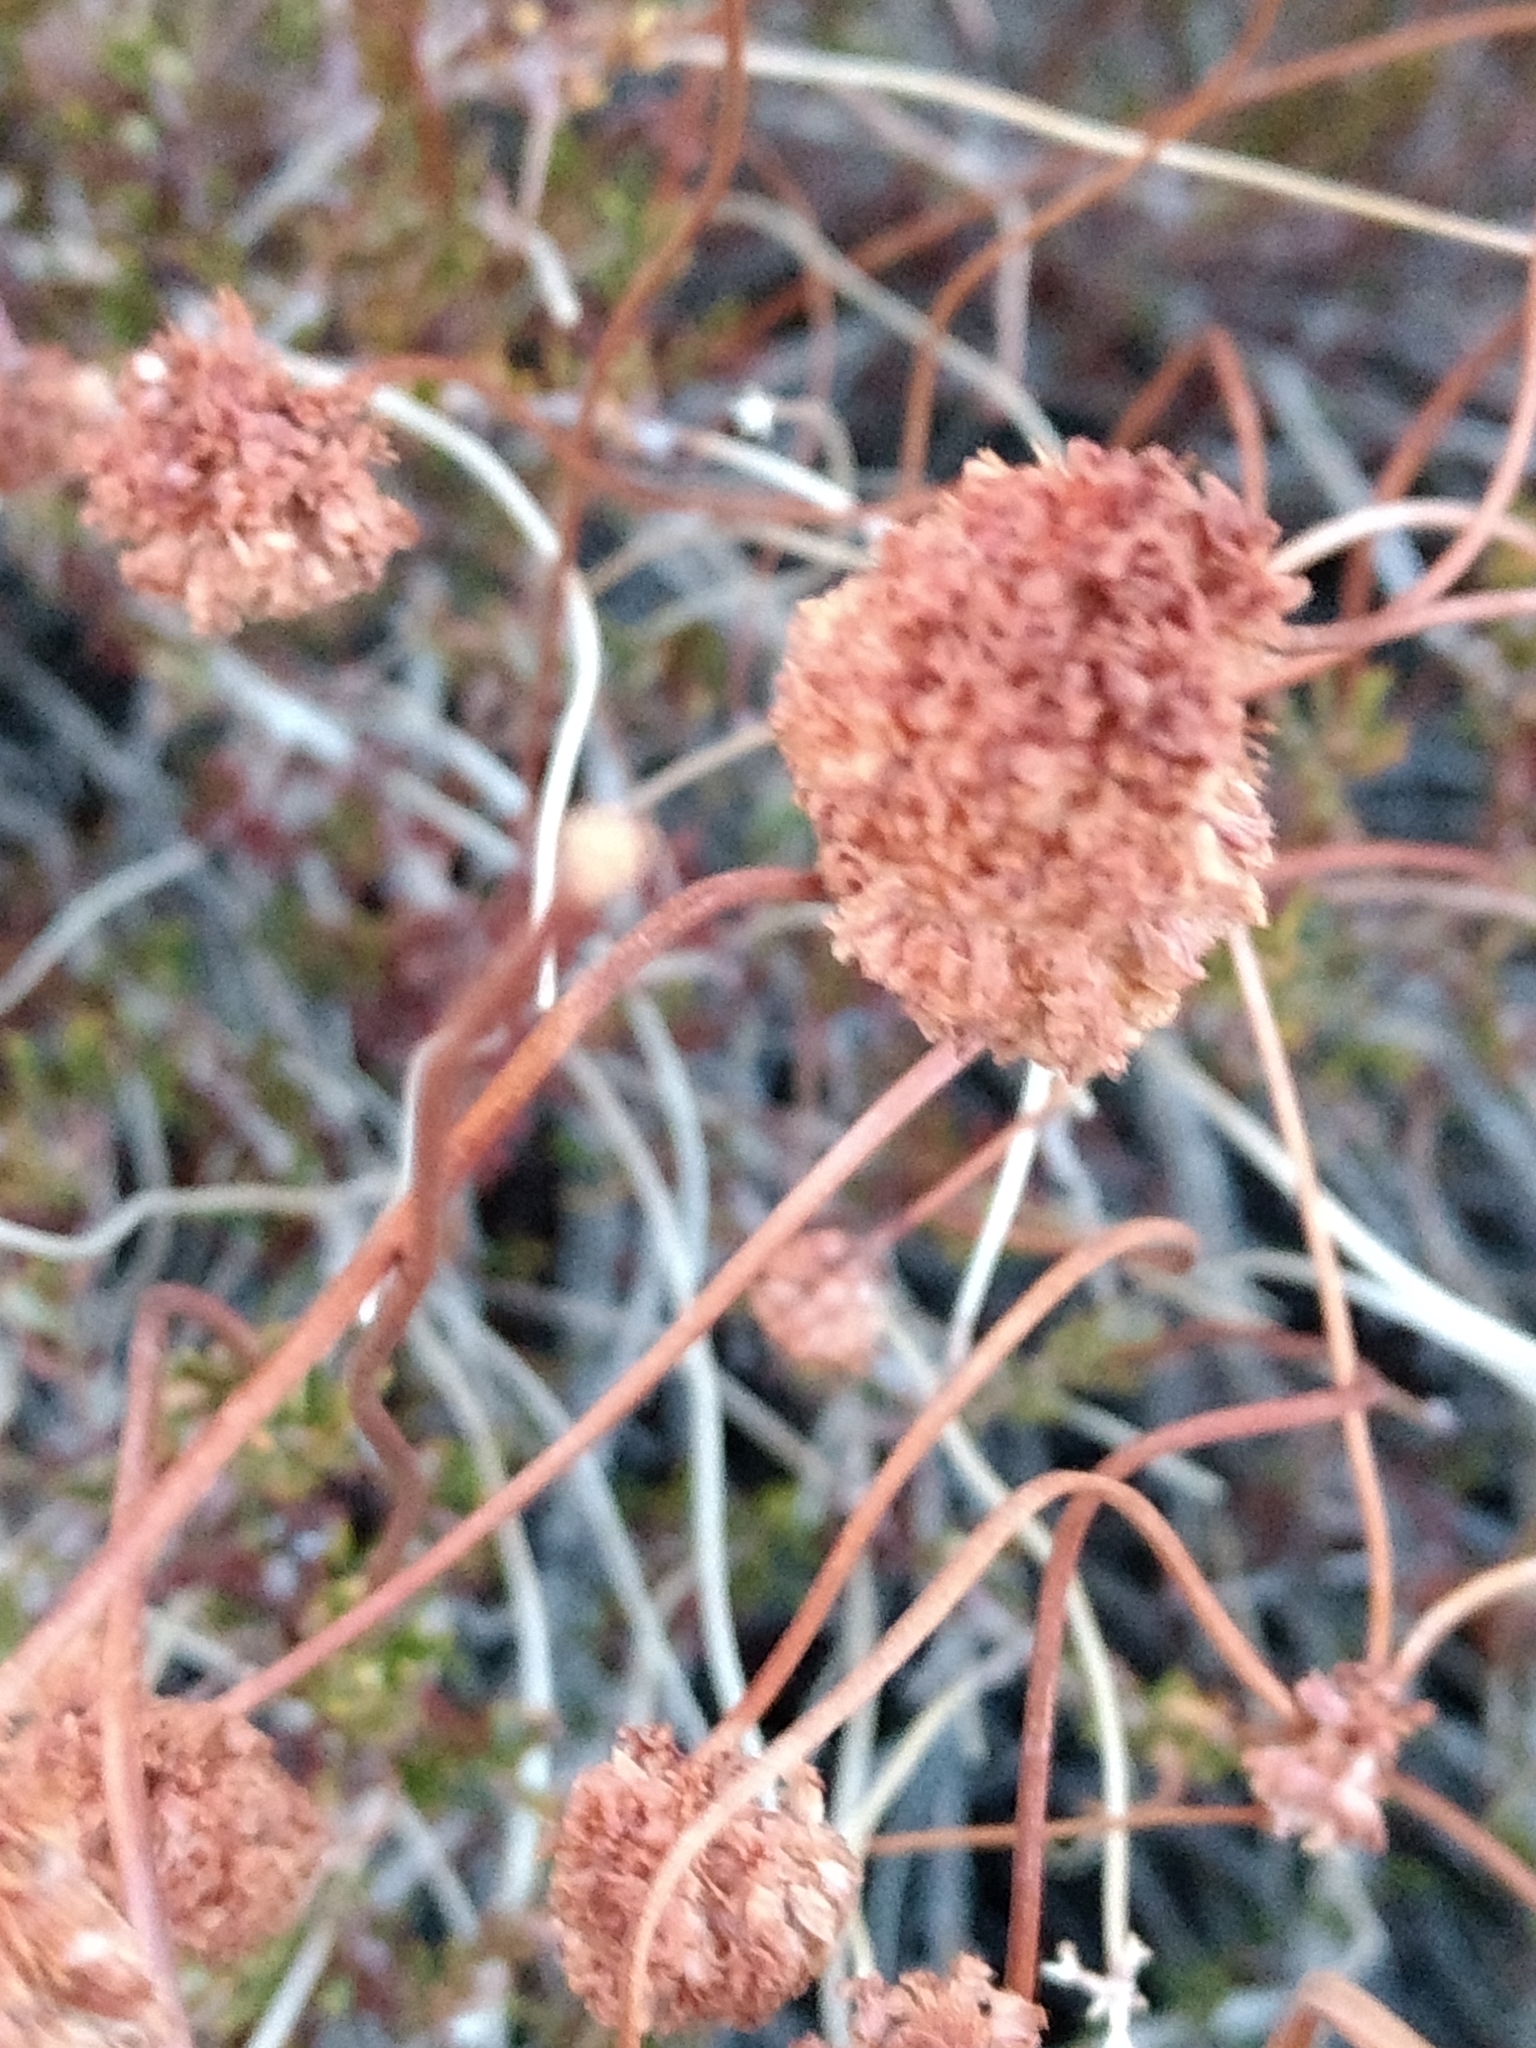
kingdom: Plantae
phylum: Tracheophyta
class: Magnoliopsida
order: Caryophyllales
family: Polygonaceae
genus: Eriogonum
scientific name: Eriogonum fasciculatum
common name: California wild buckwheat
